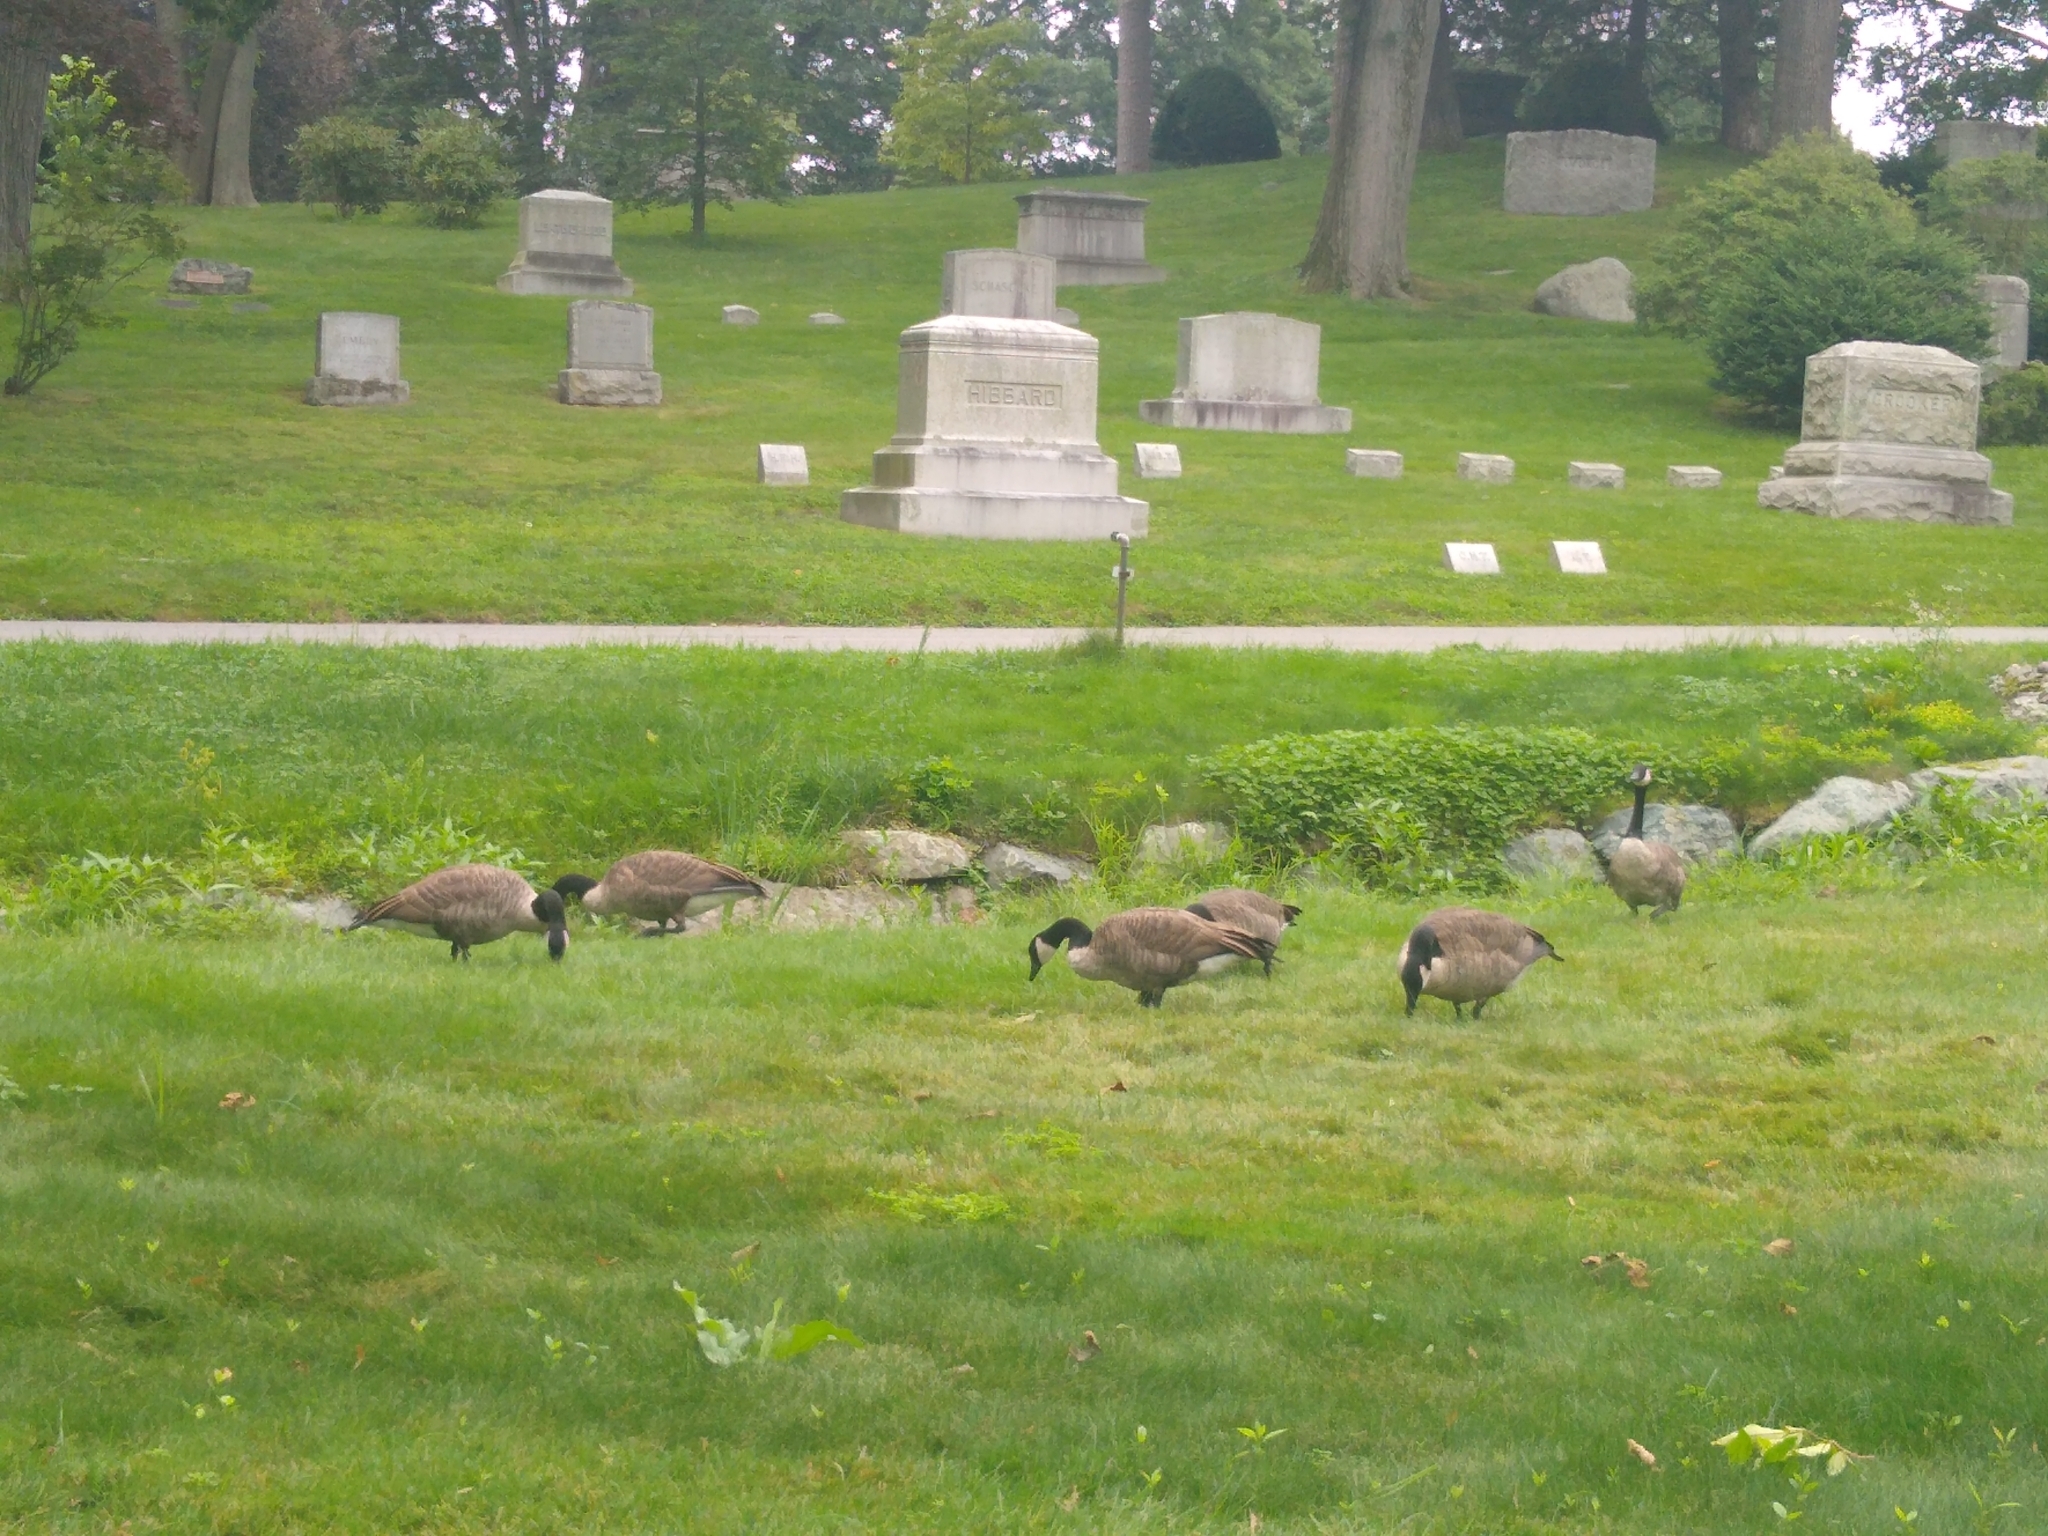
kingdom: Animalia
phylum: Chordata
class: Aves
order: Anseriformes
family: Anatidae
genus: Branta
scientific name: Branta canadensis
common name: Canada goose
